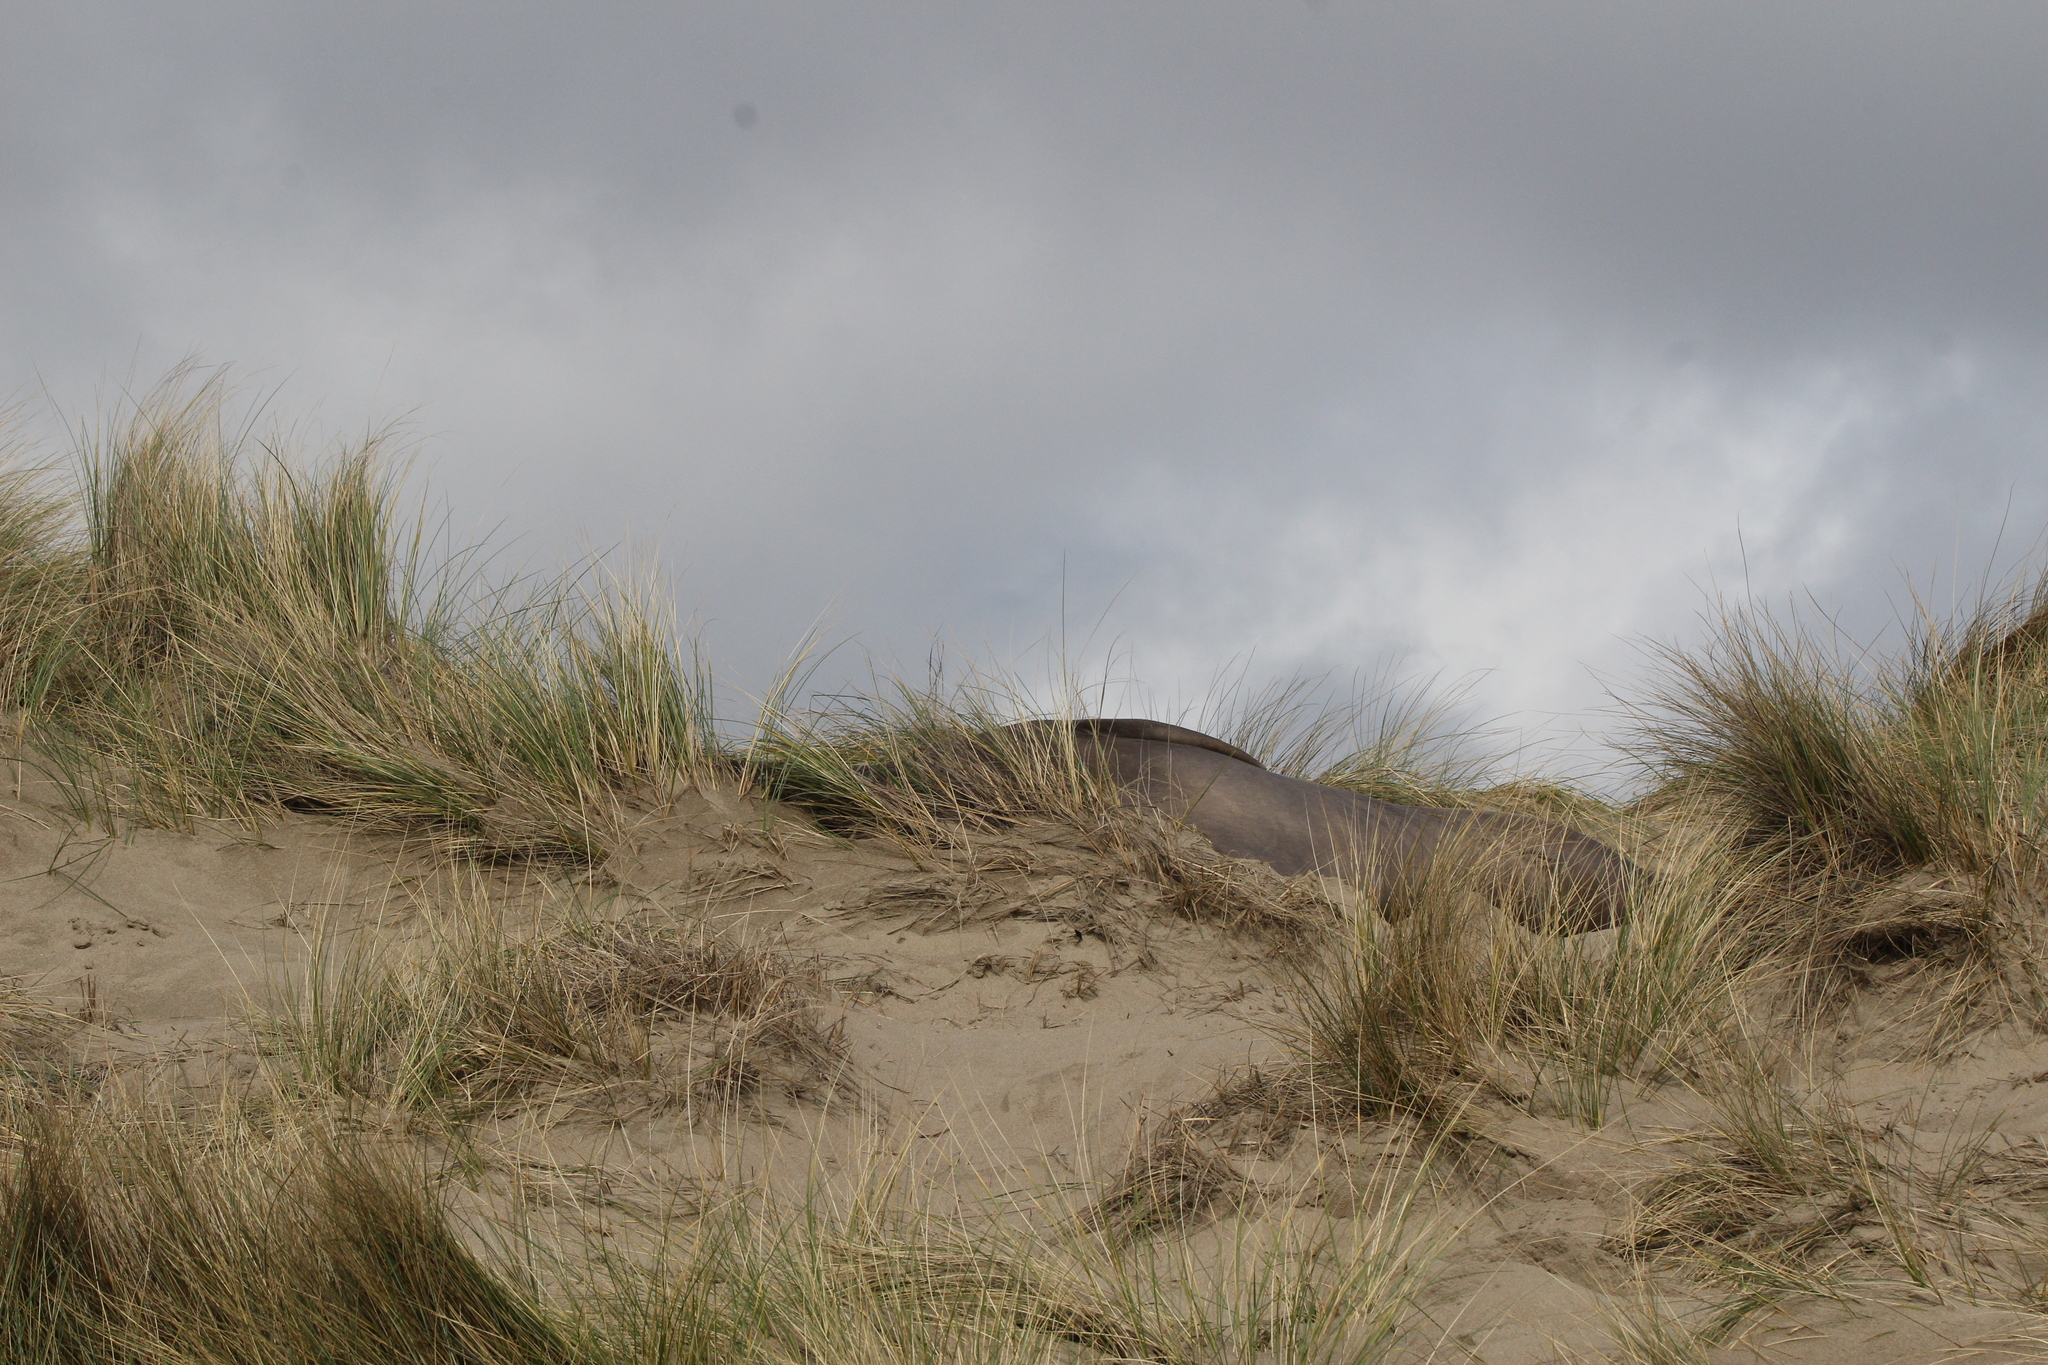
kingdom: Animalia
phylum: Chordata
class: Mammalia
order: Carnivora
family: Phocidae
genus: Mirounga
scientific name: Mirounga angustirostris
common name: Northern elephant seal
